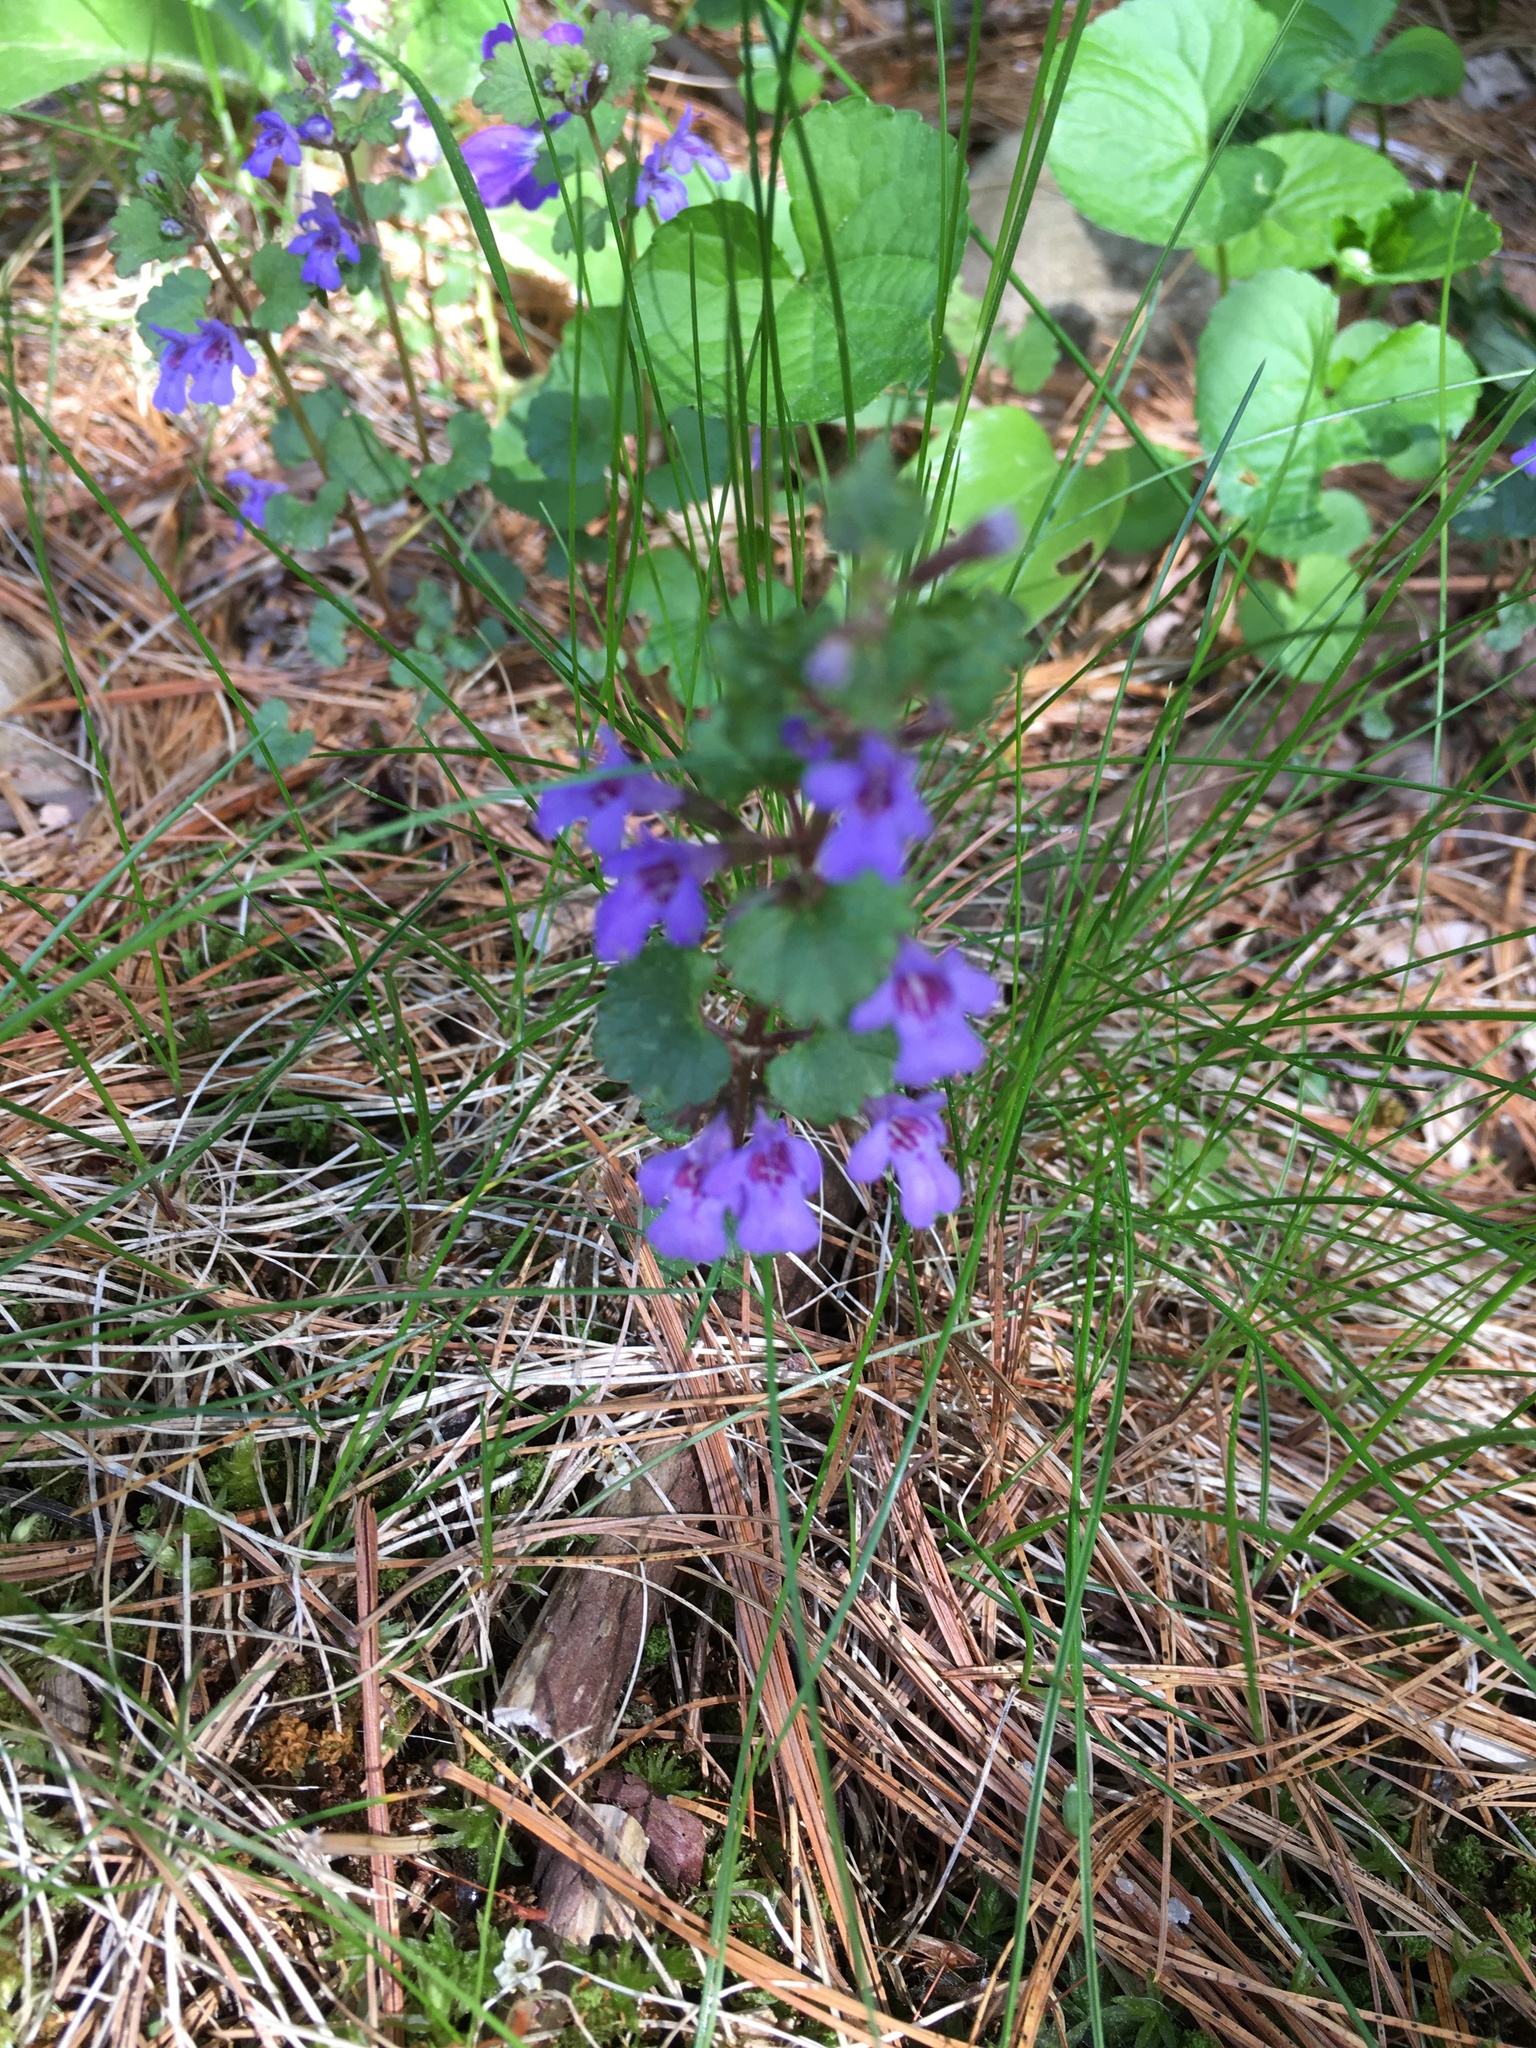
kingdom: Plantae
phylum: Tracheophyta
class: Magnoliopsida
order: Lamiales
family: Lamiaceae
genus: Glechoma
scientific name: Glechoma hederacea
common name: Ground ivy
